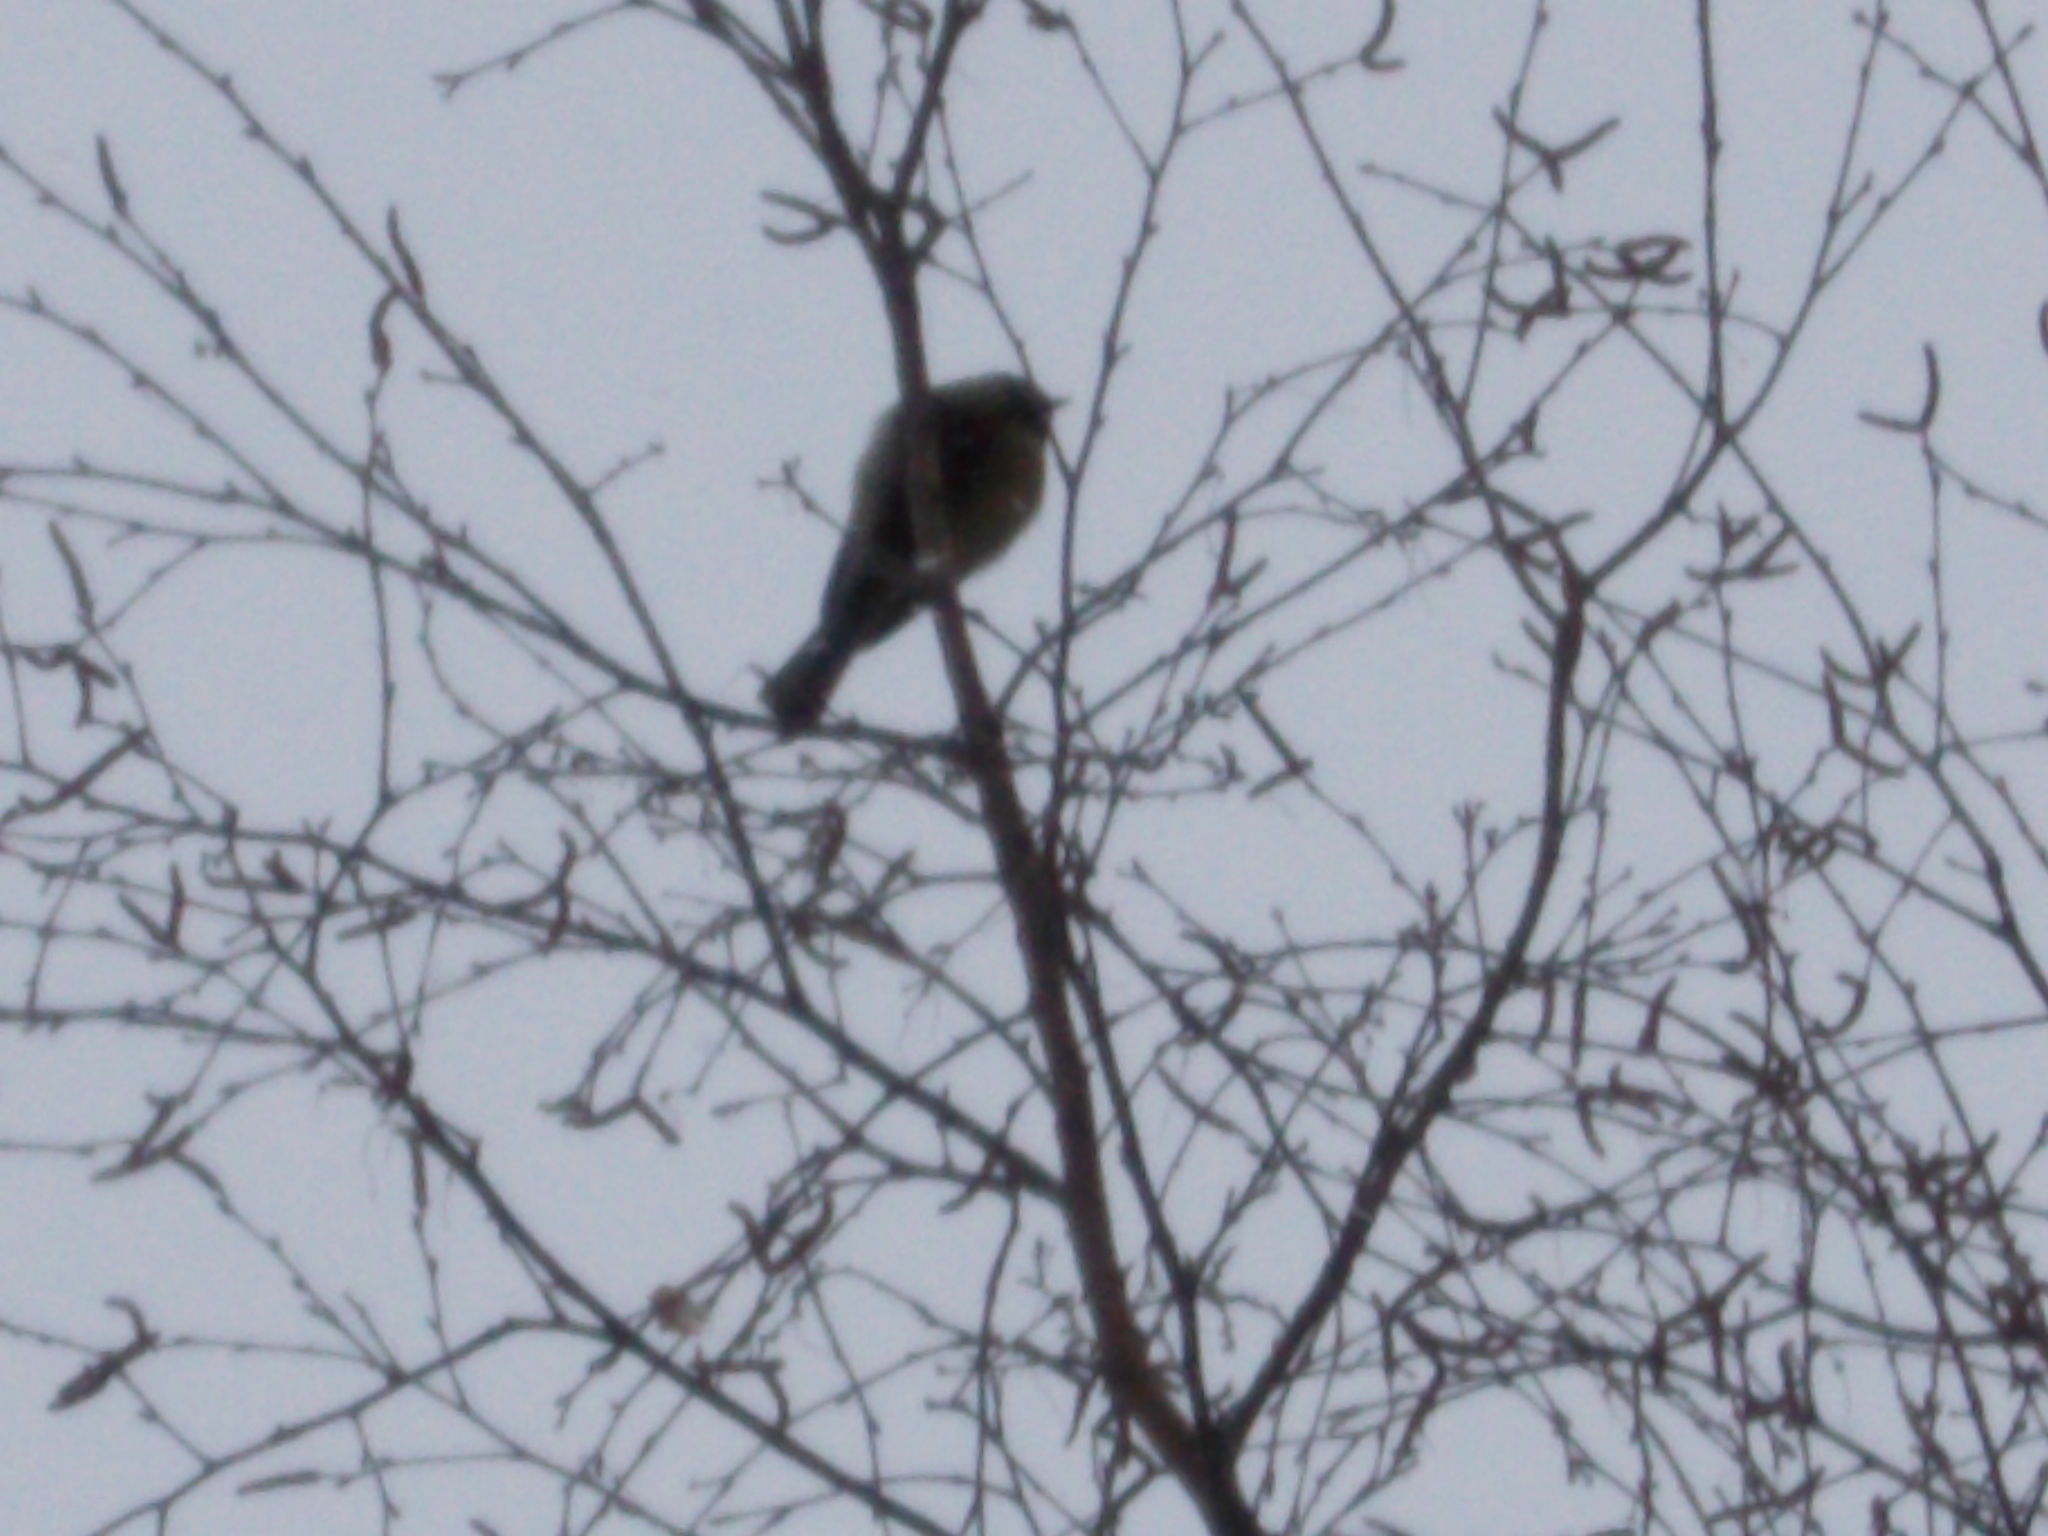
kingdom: Animalia
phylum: Chordata
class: Aves
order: Passeriformes
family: Paridae
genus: Parus
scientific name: Parus major
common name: Great tit
